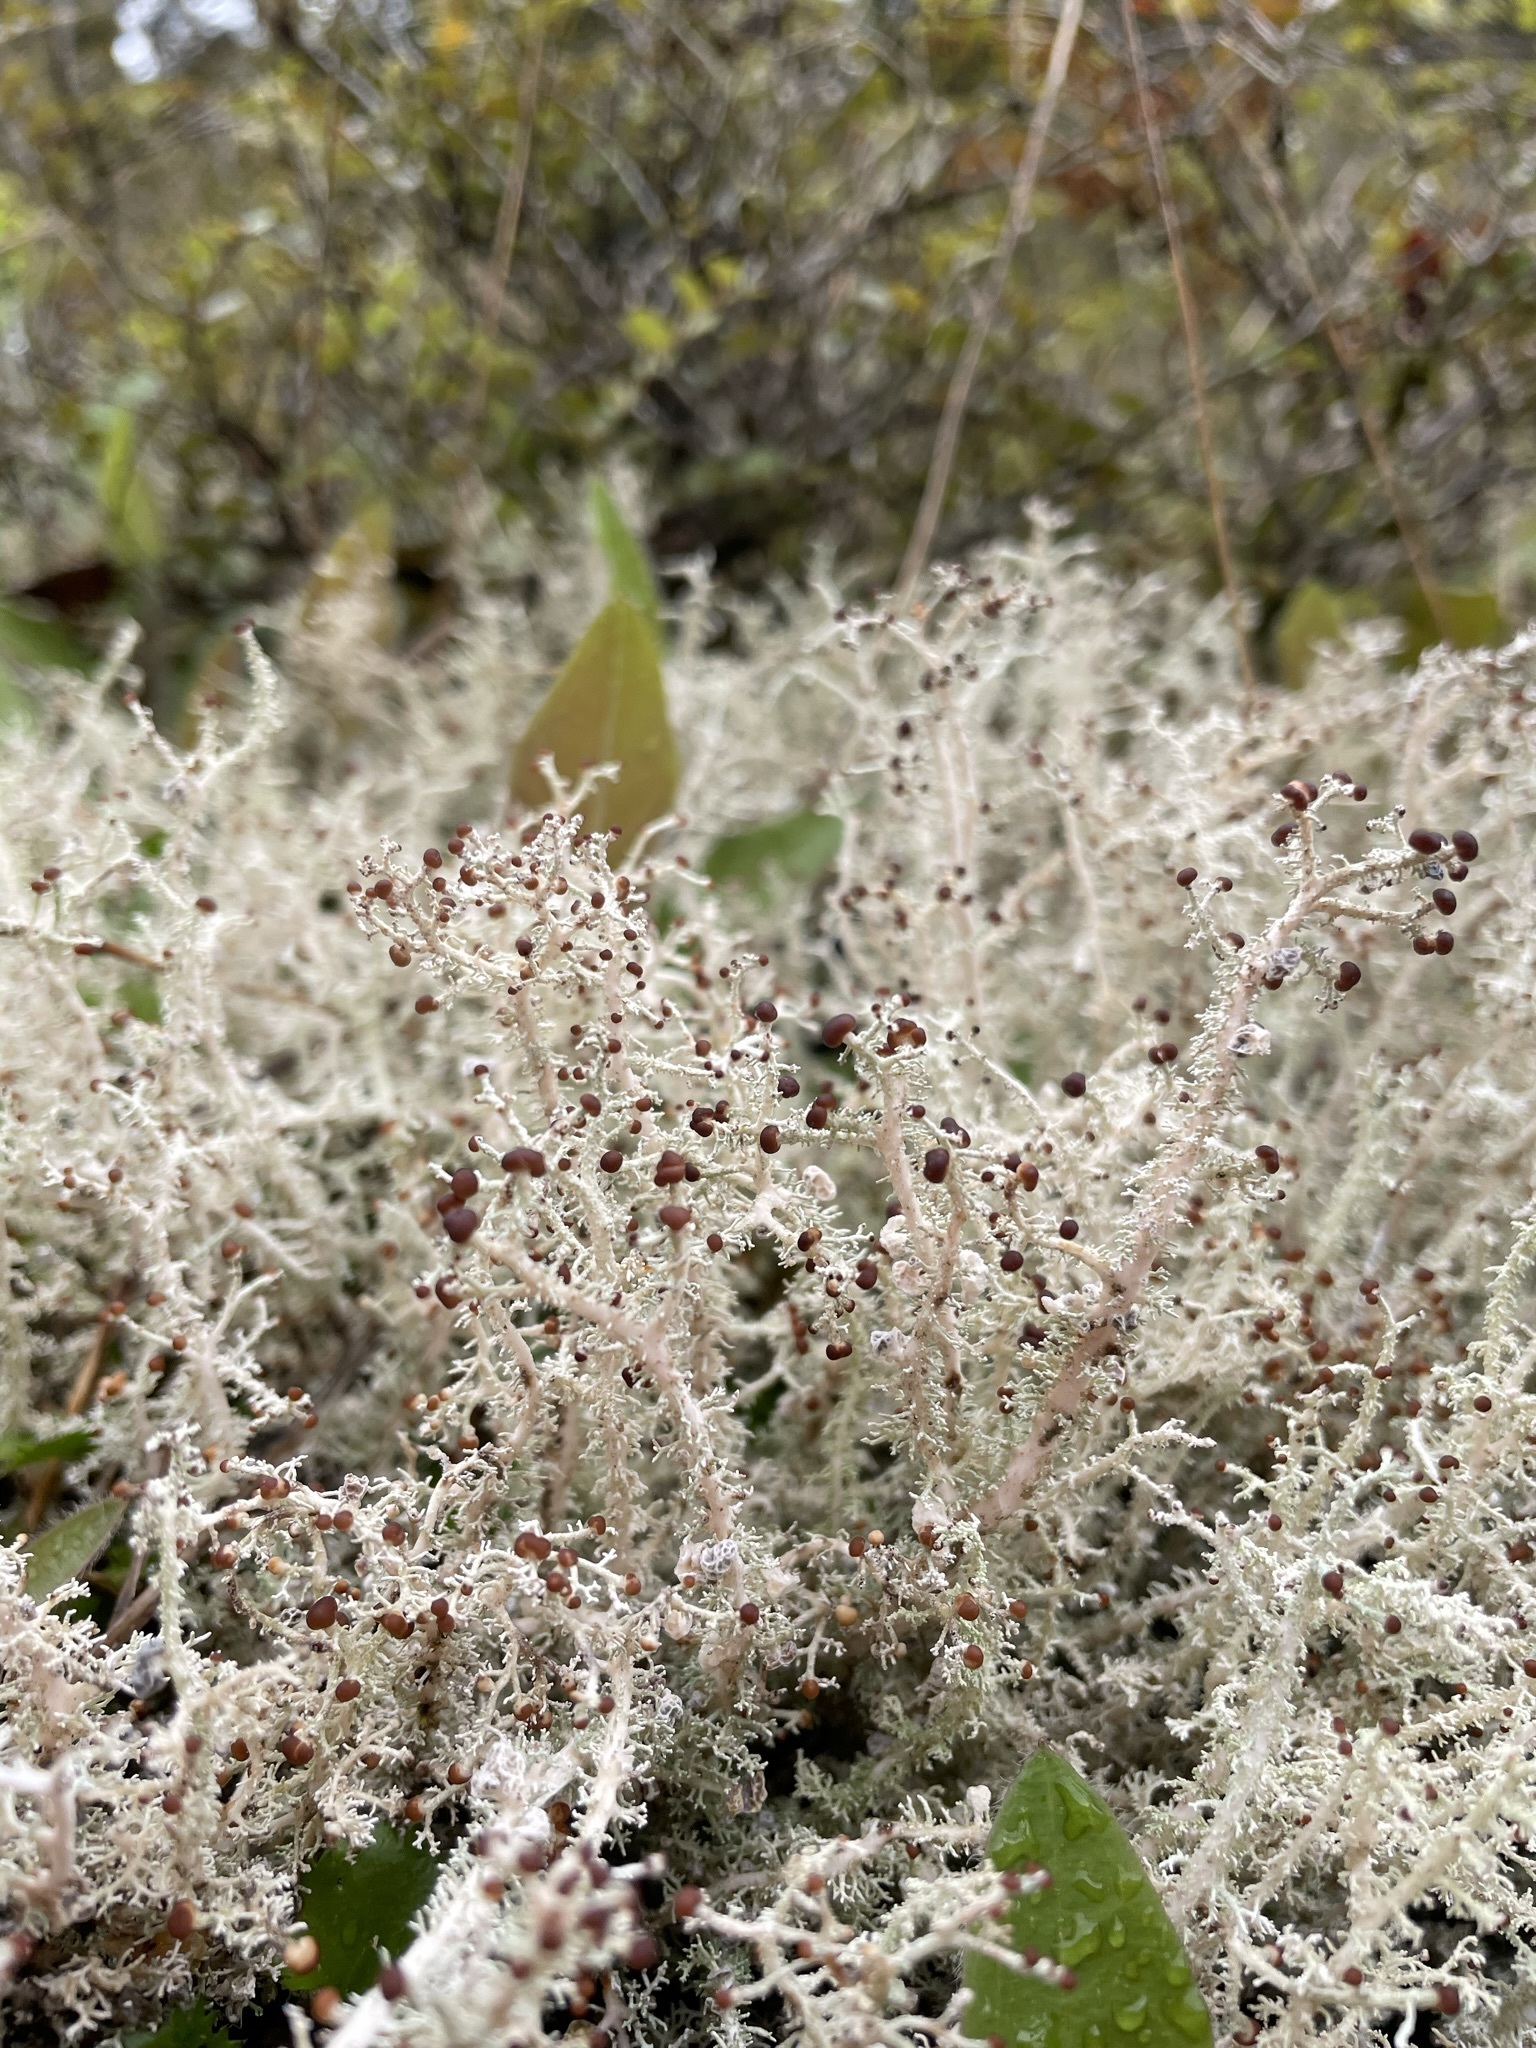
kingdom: Fungi
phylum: Ascomycota
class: Lecanoromycetes
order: Lecanorales
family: Stereocaulaceae
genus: Stereocaulon
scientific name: Stereocaulon ramulosum
